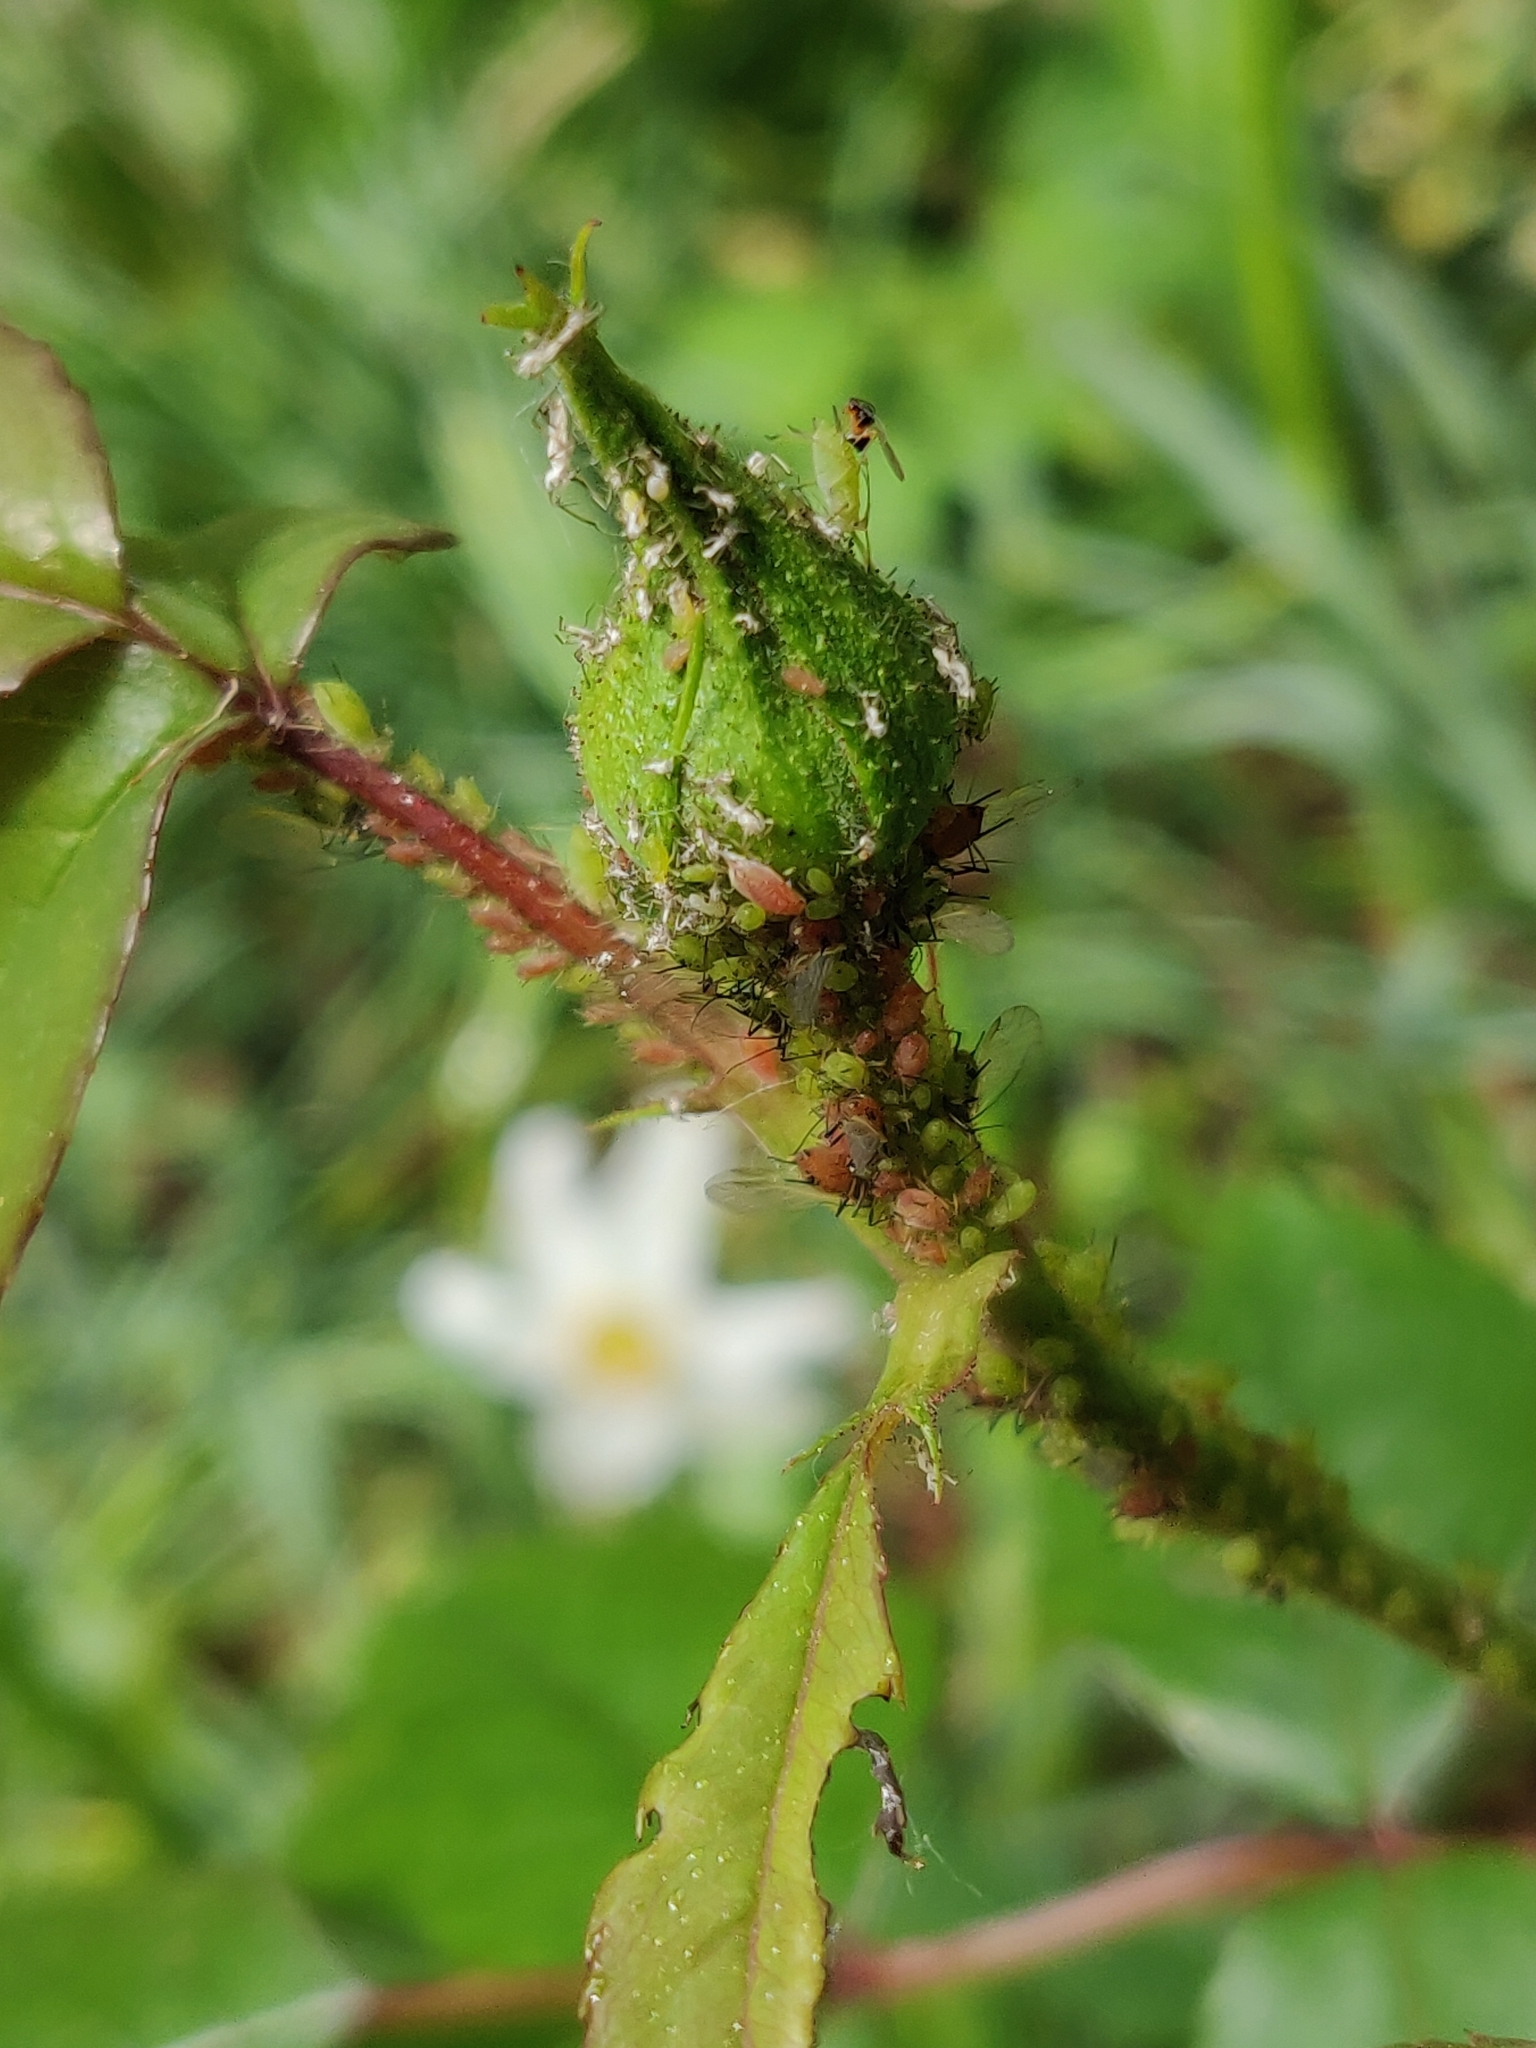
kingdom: Animalia
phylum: Arthropoda
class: Insecta
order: Hemiptera
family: Aphididae
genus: Macrosiphum
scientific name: Macrosiphum rosae
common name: Rose aphid
